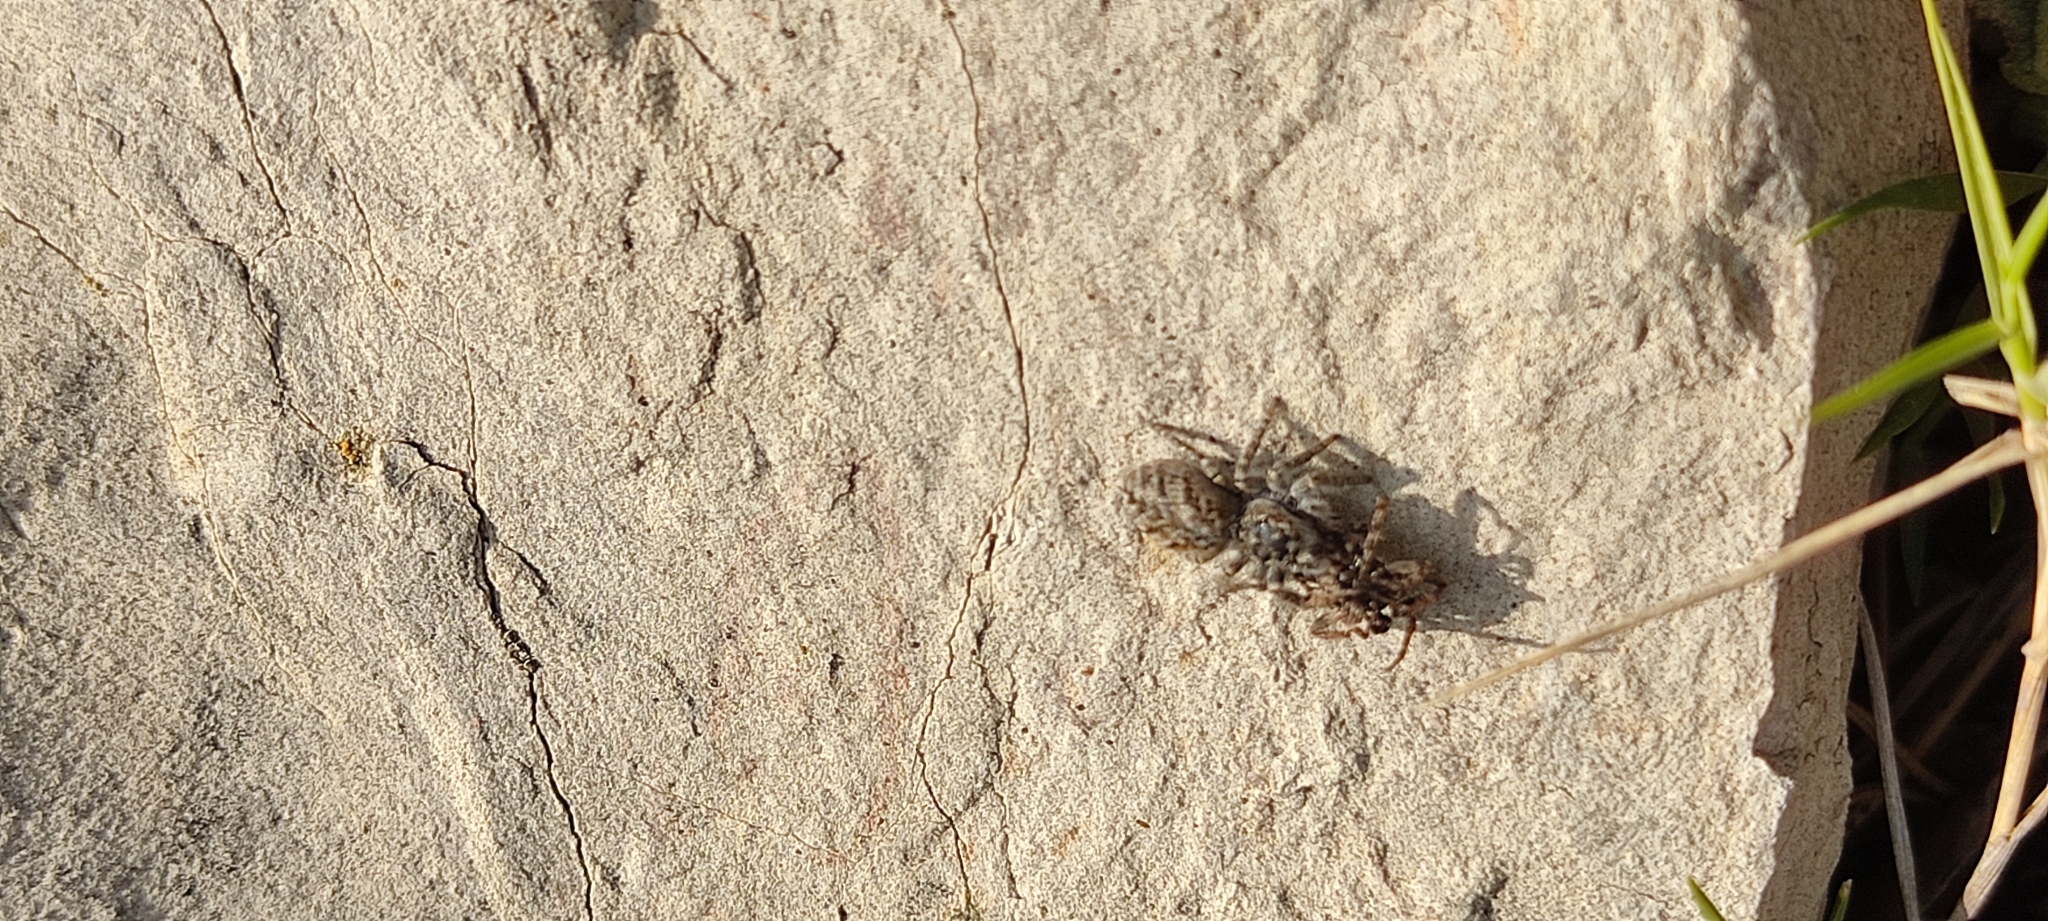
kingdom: Animalia
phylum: Arthropoda
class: Arachnida
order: Araneae
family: Salticidae
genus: Philaeus
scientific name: Philaeus chrysops
